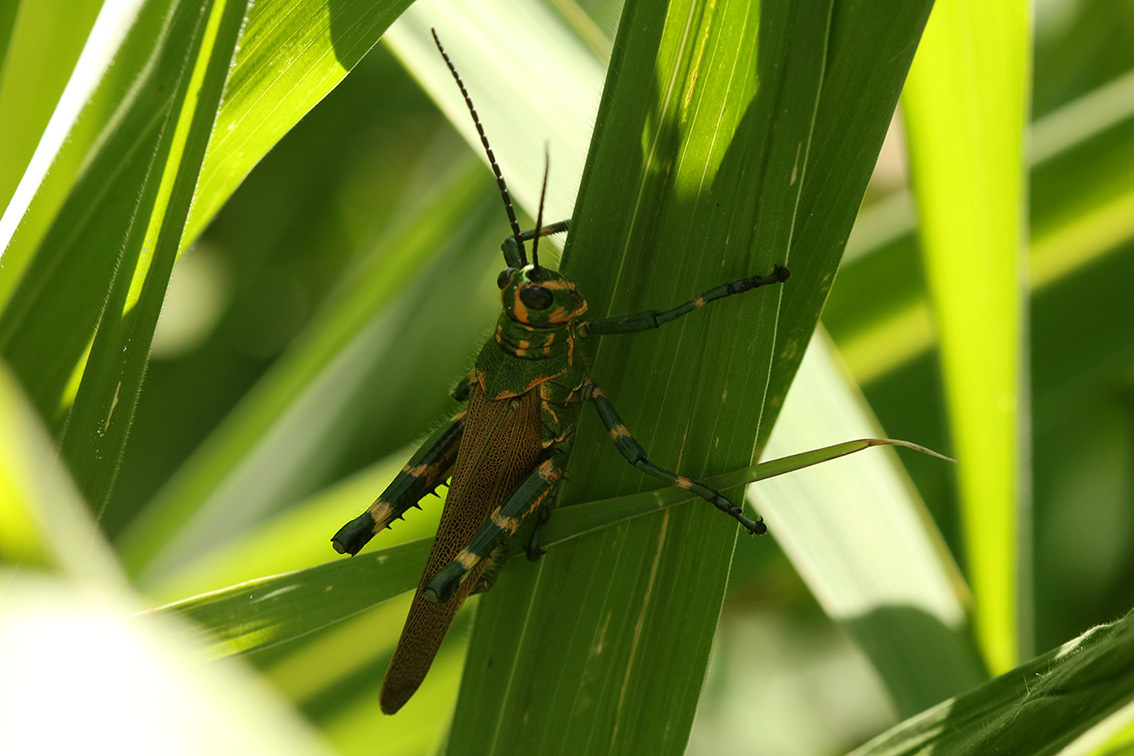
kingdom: Animalia
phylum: Arthropoda
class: Insecta
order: Orthoptera
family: Romaleidae
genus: Chromacris
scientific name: Chromacris speciosa
